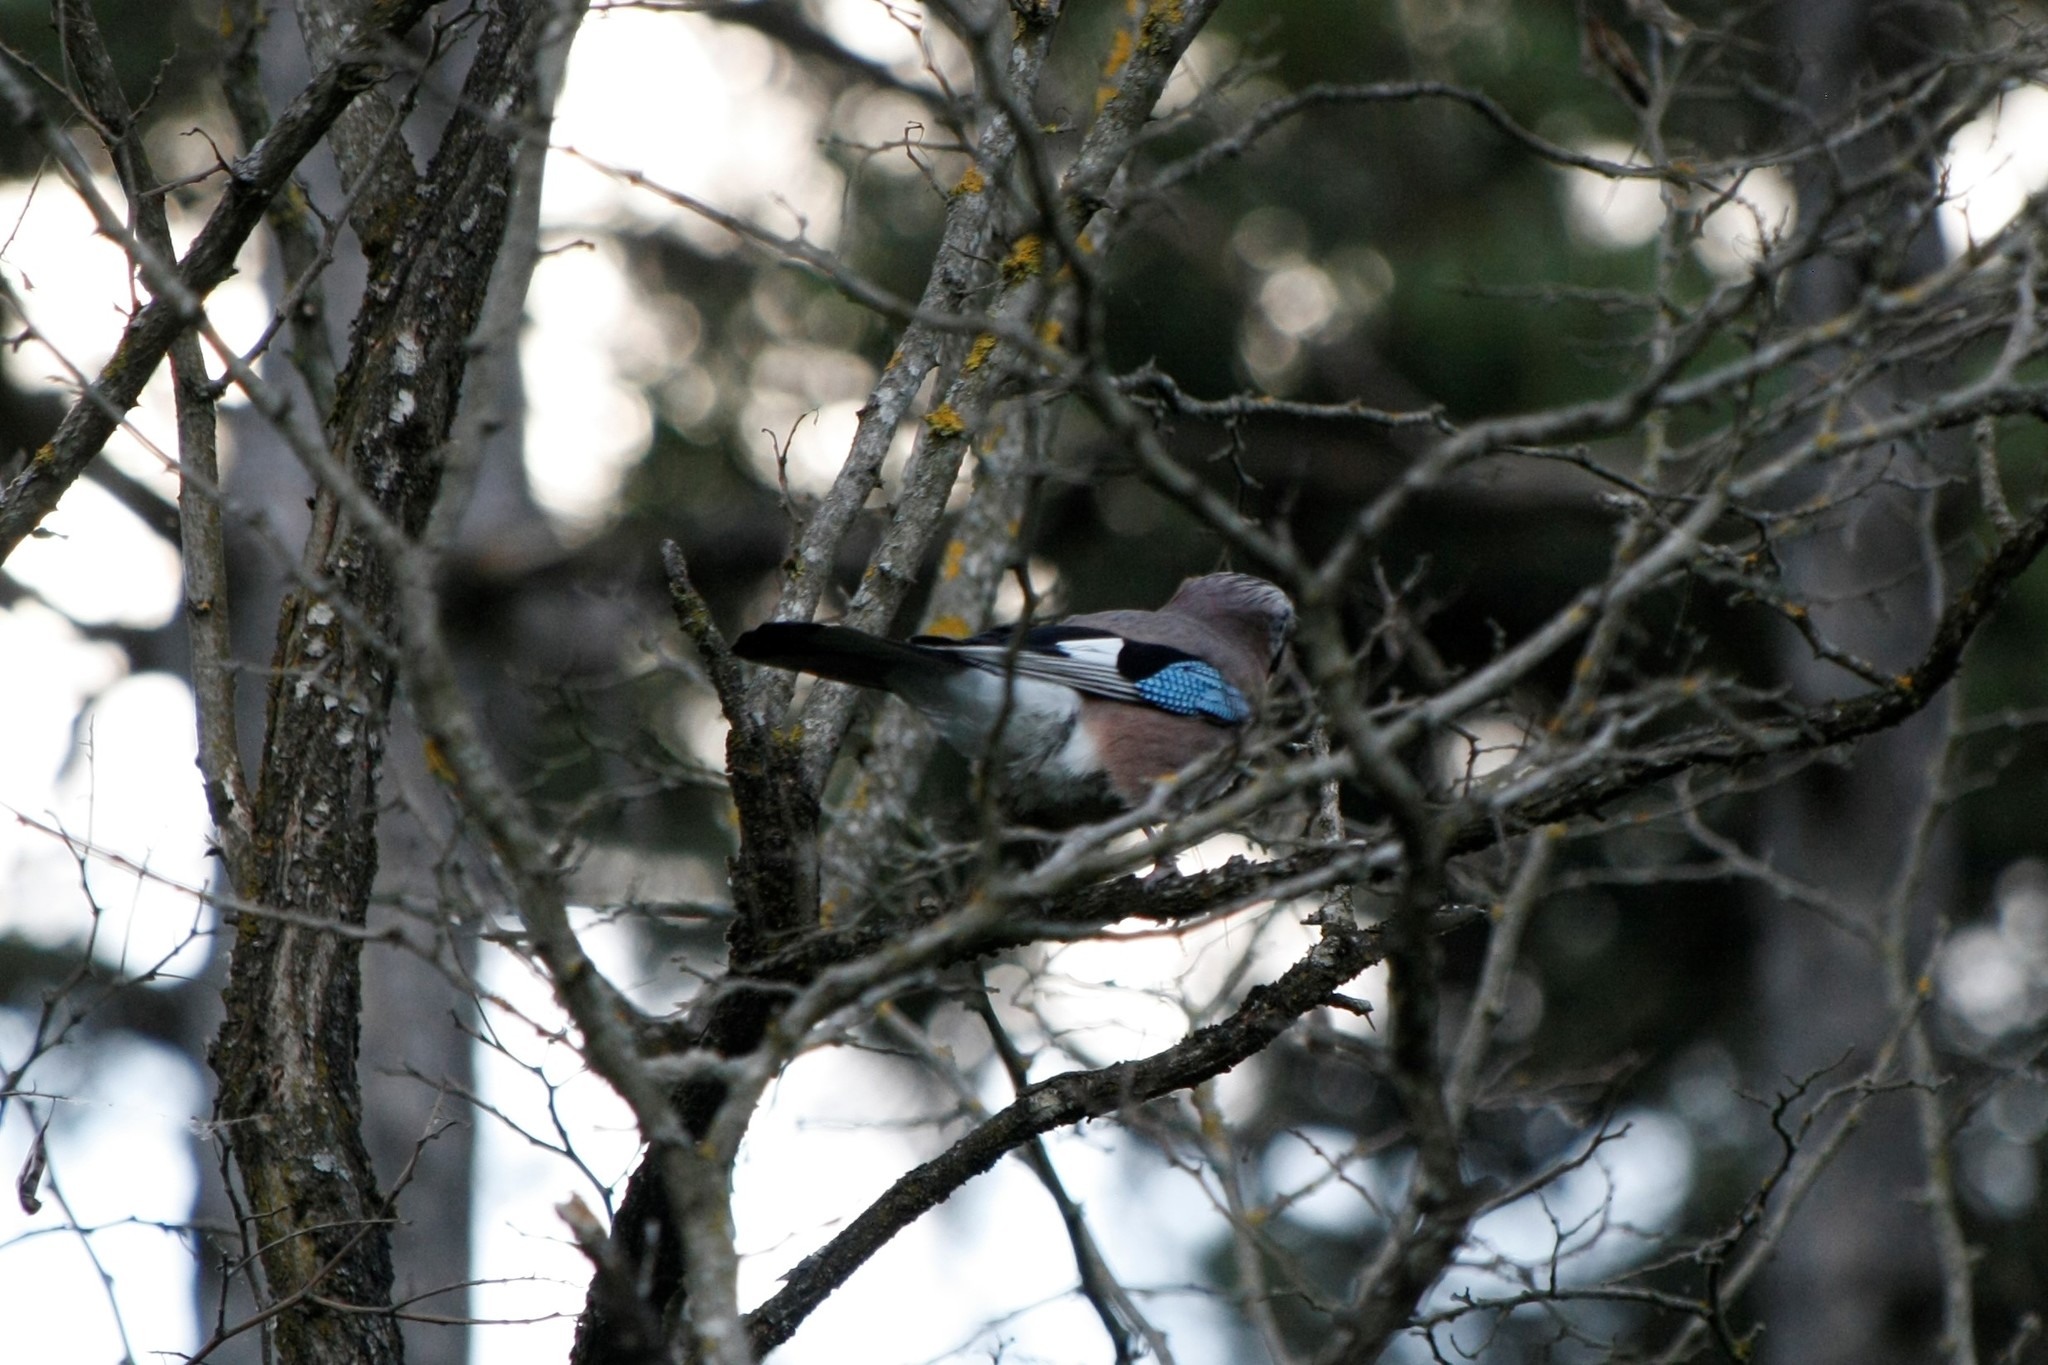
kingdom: Animalia
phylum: Chordata
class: Aves
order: Passeriformes
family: Corvidae
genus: Garrulus
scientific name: Garrulus glandarius
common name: Eurasian jay
